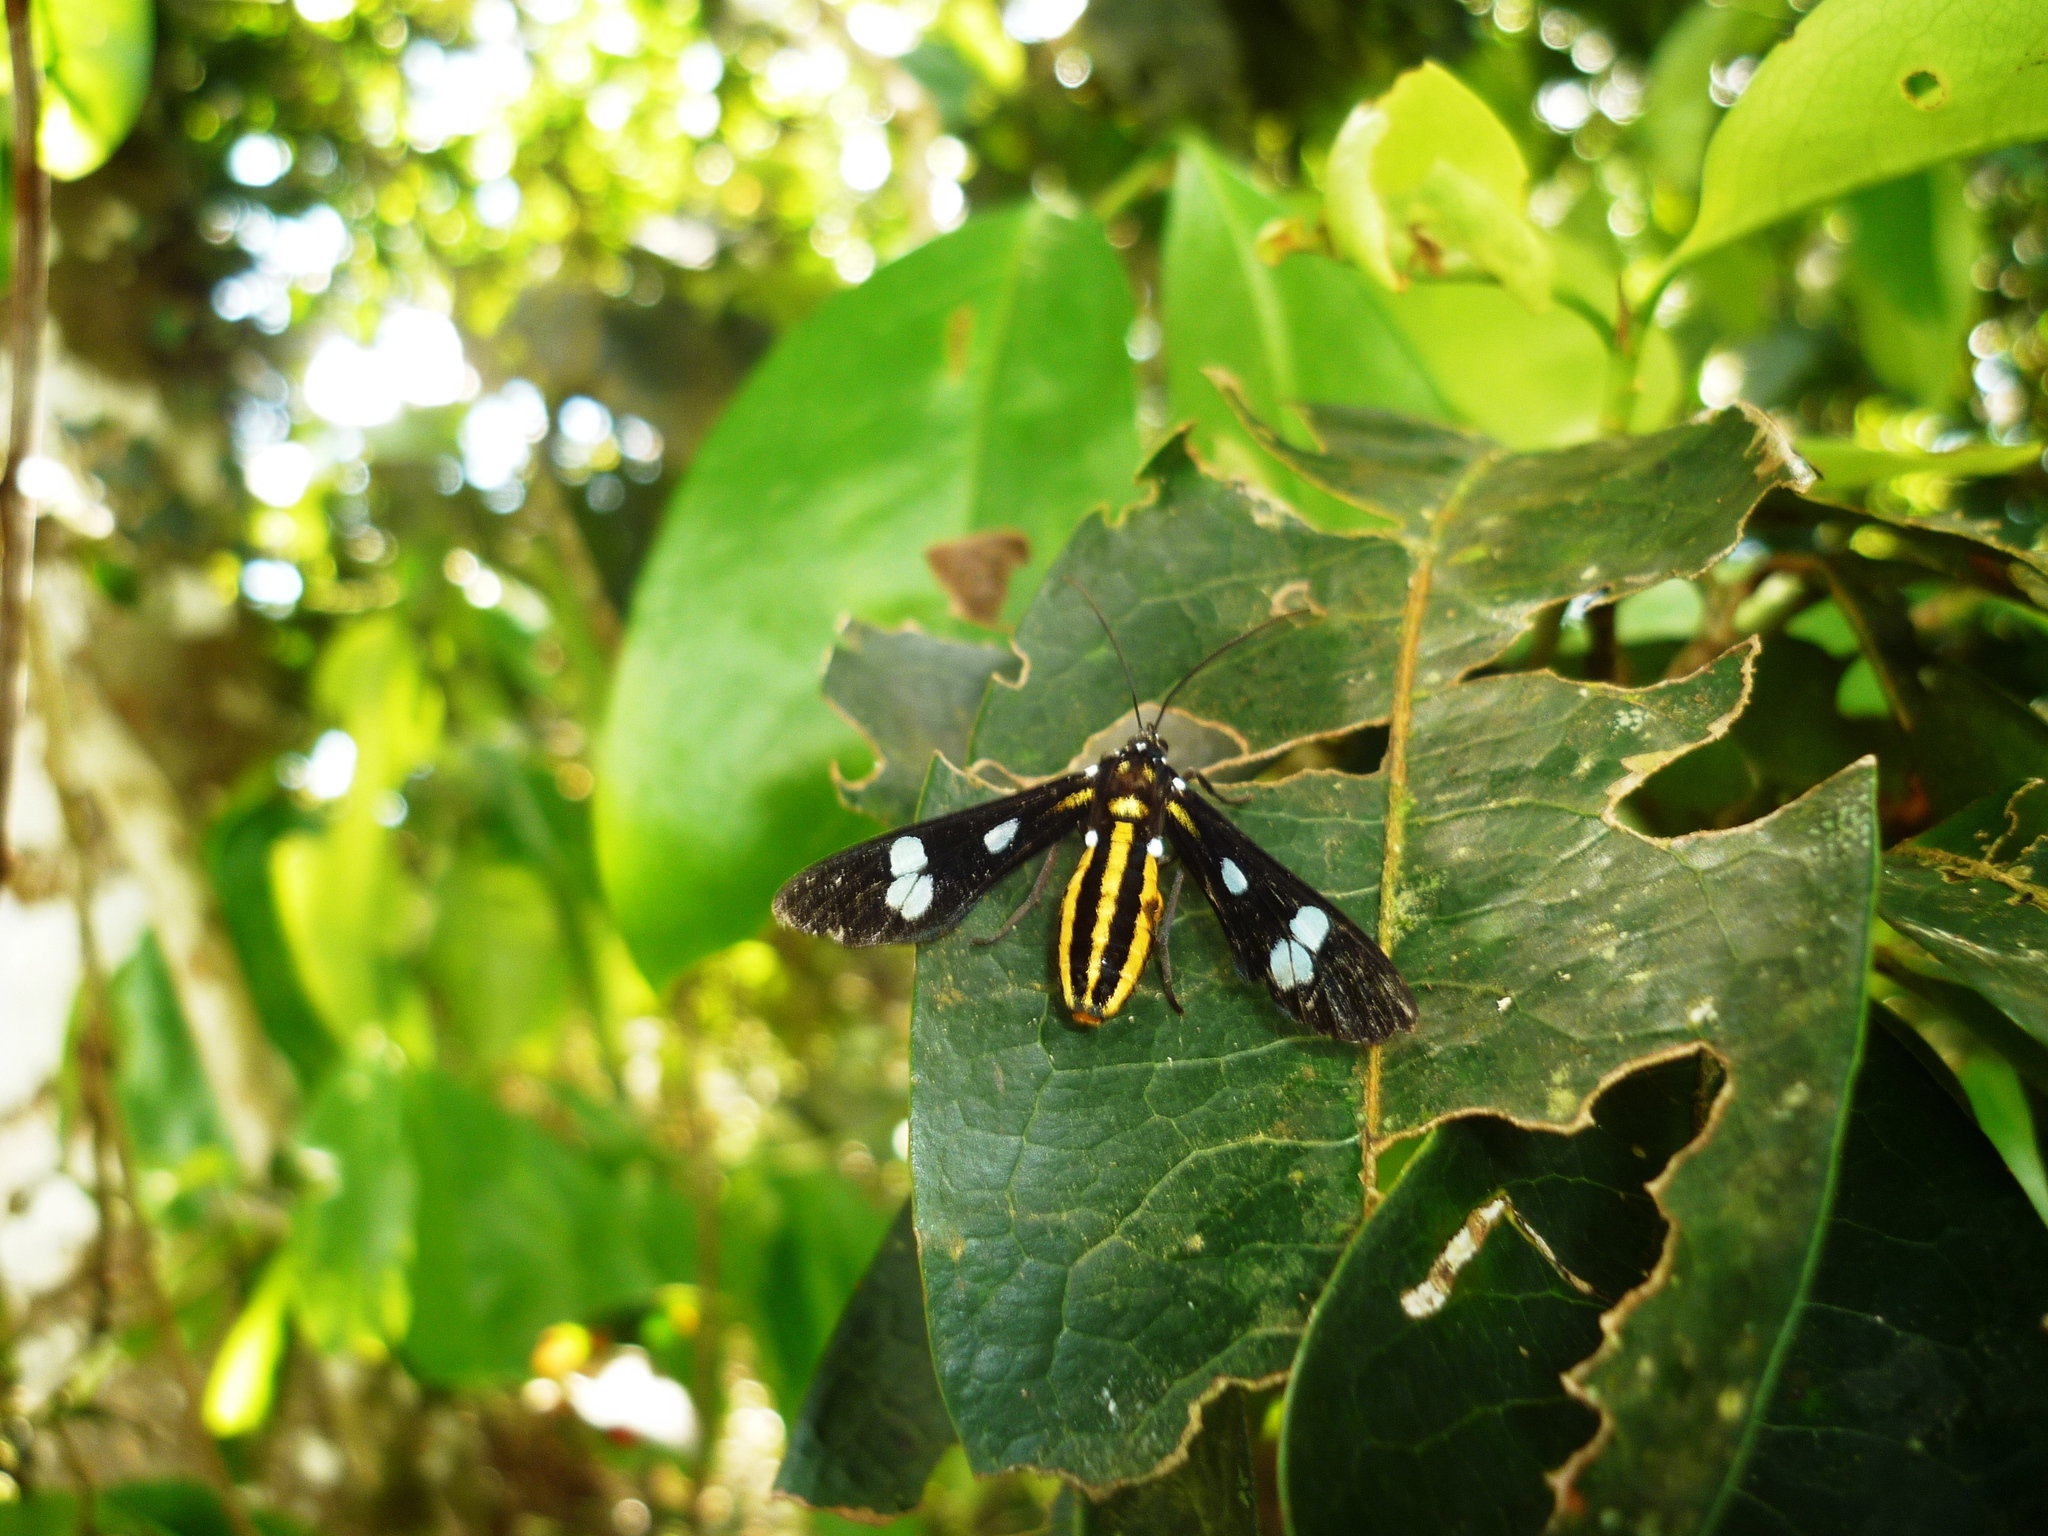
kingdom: Animalia
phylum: Arthropoda
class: Insecta
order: Lepidoptera
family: Erebidae
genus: Metaloba
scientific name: Metaloba nana
